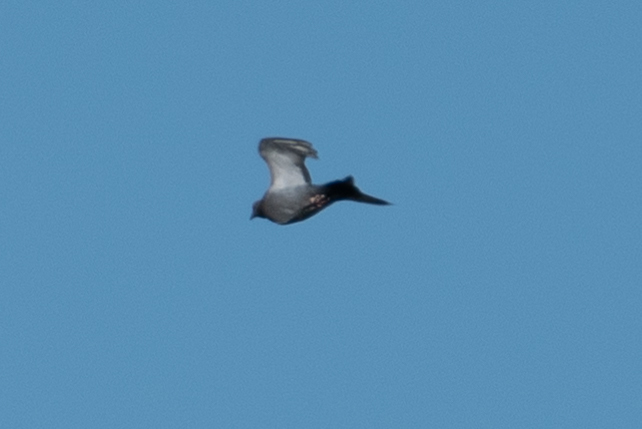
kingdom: Animalia
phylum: Chordata
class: Aves
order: Columbiformes
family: Columbidae
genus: Columba
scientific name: Columba livia
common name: Rock pigeon
